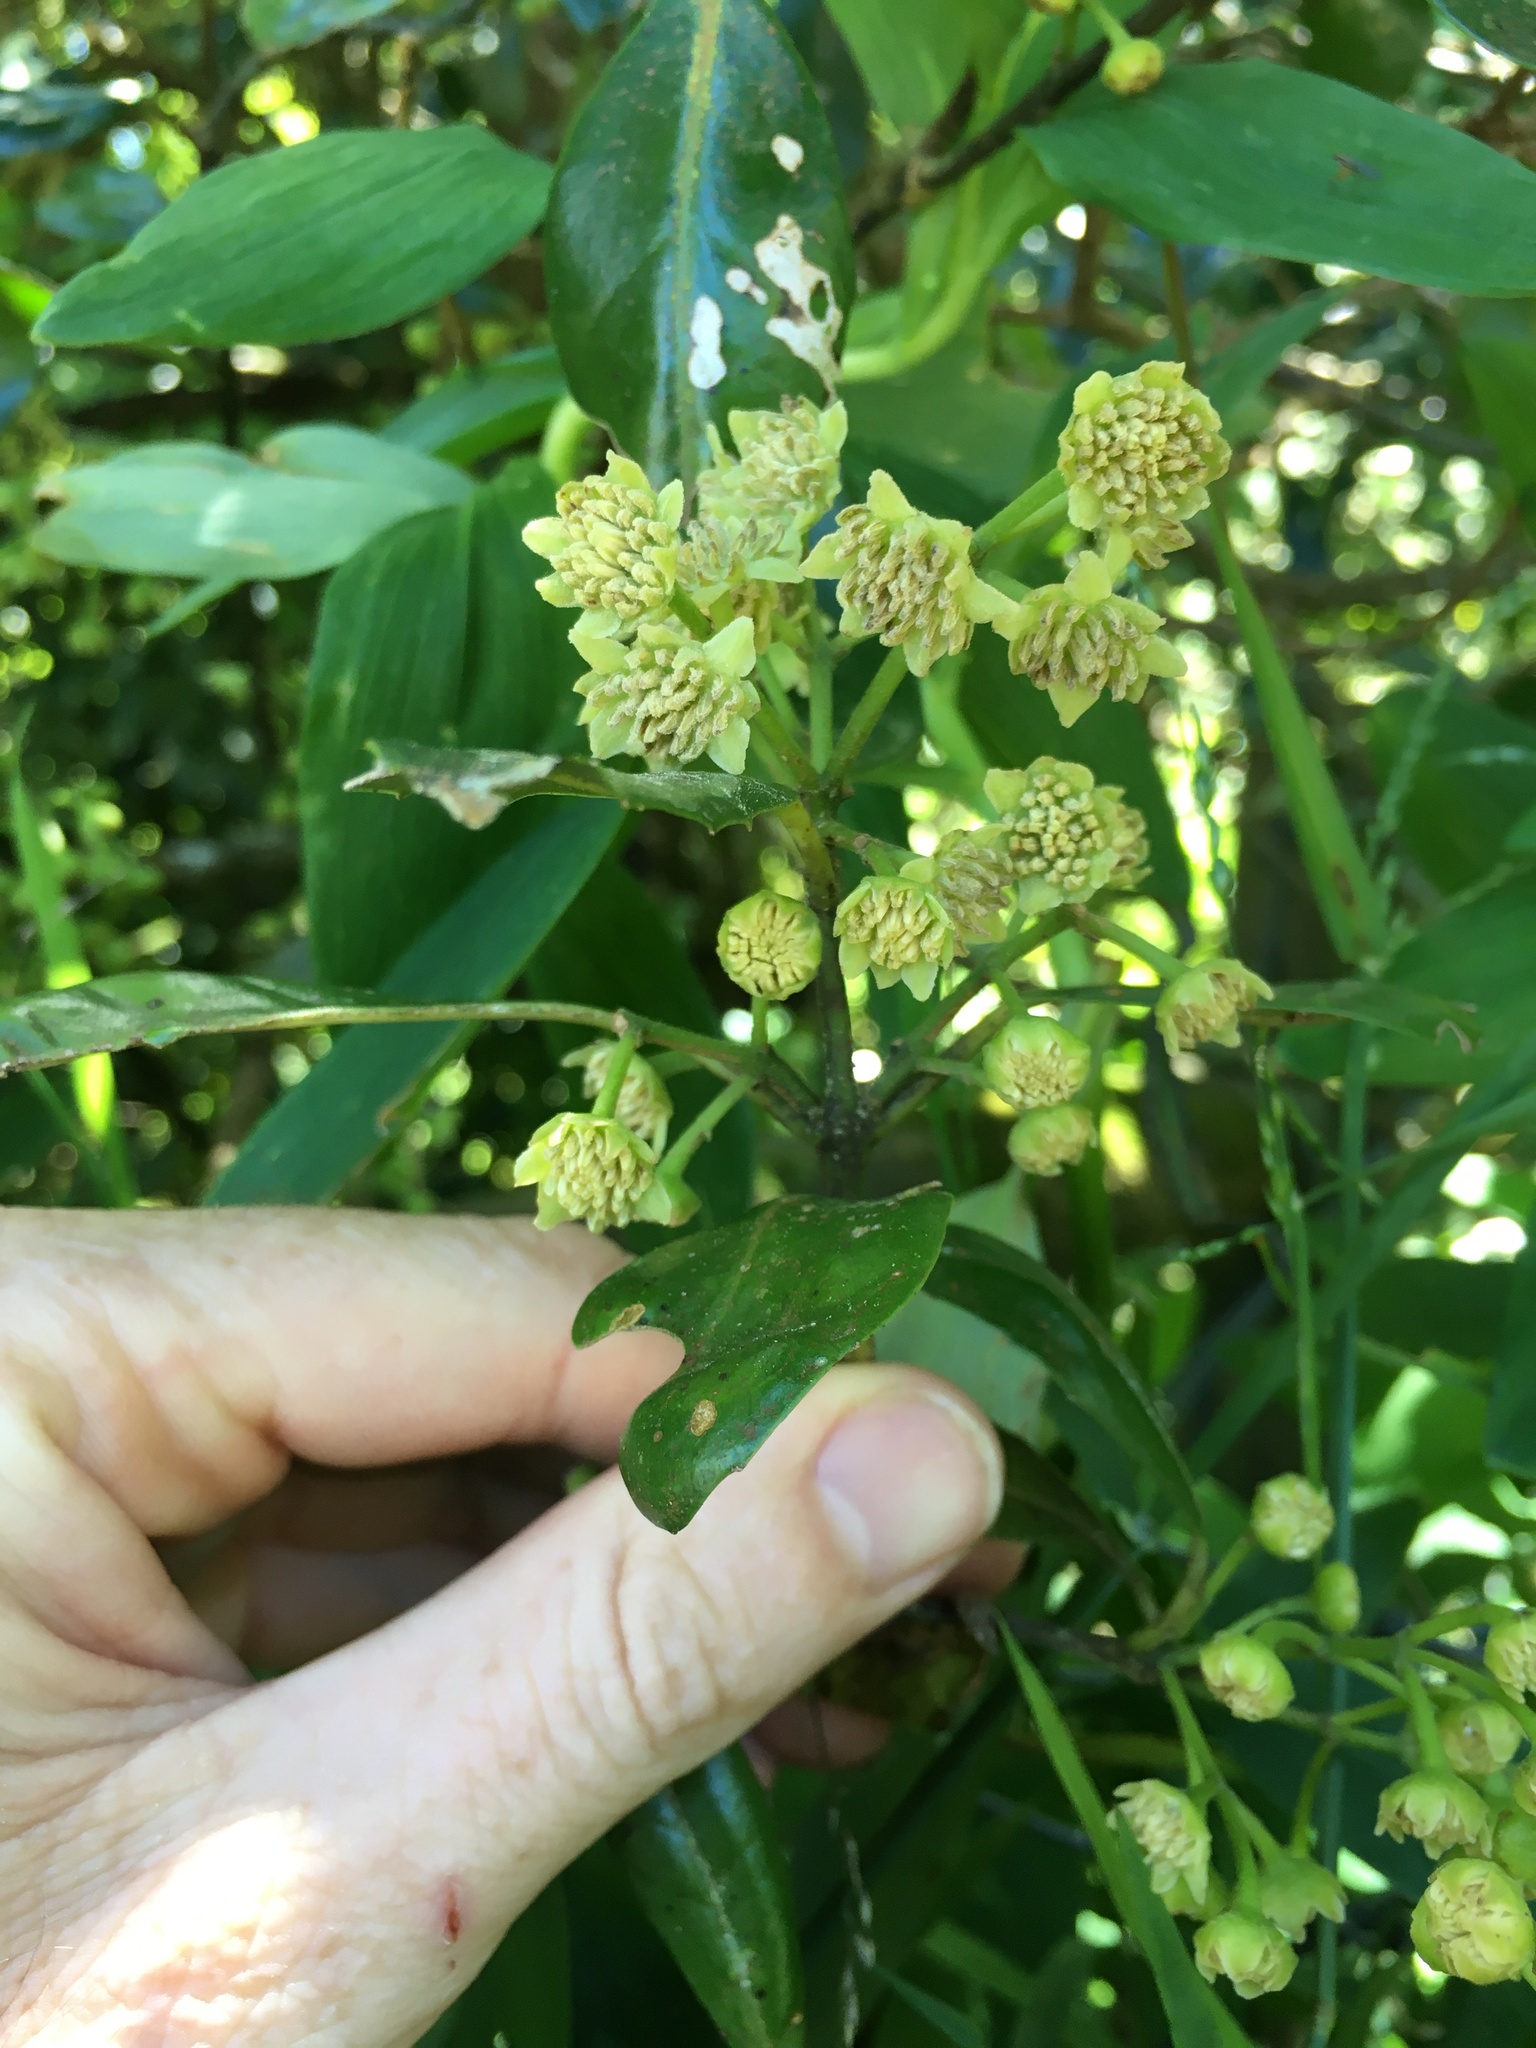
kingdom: Plantae
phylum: Tracheophyta
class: Magnoliopsida
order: Laurales
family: Monimiaceae
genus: Hedycarya
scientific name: Hedycarya arborea
